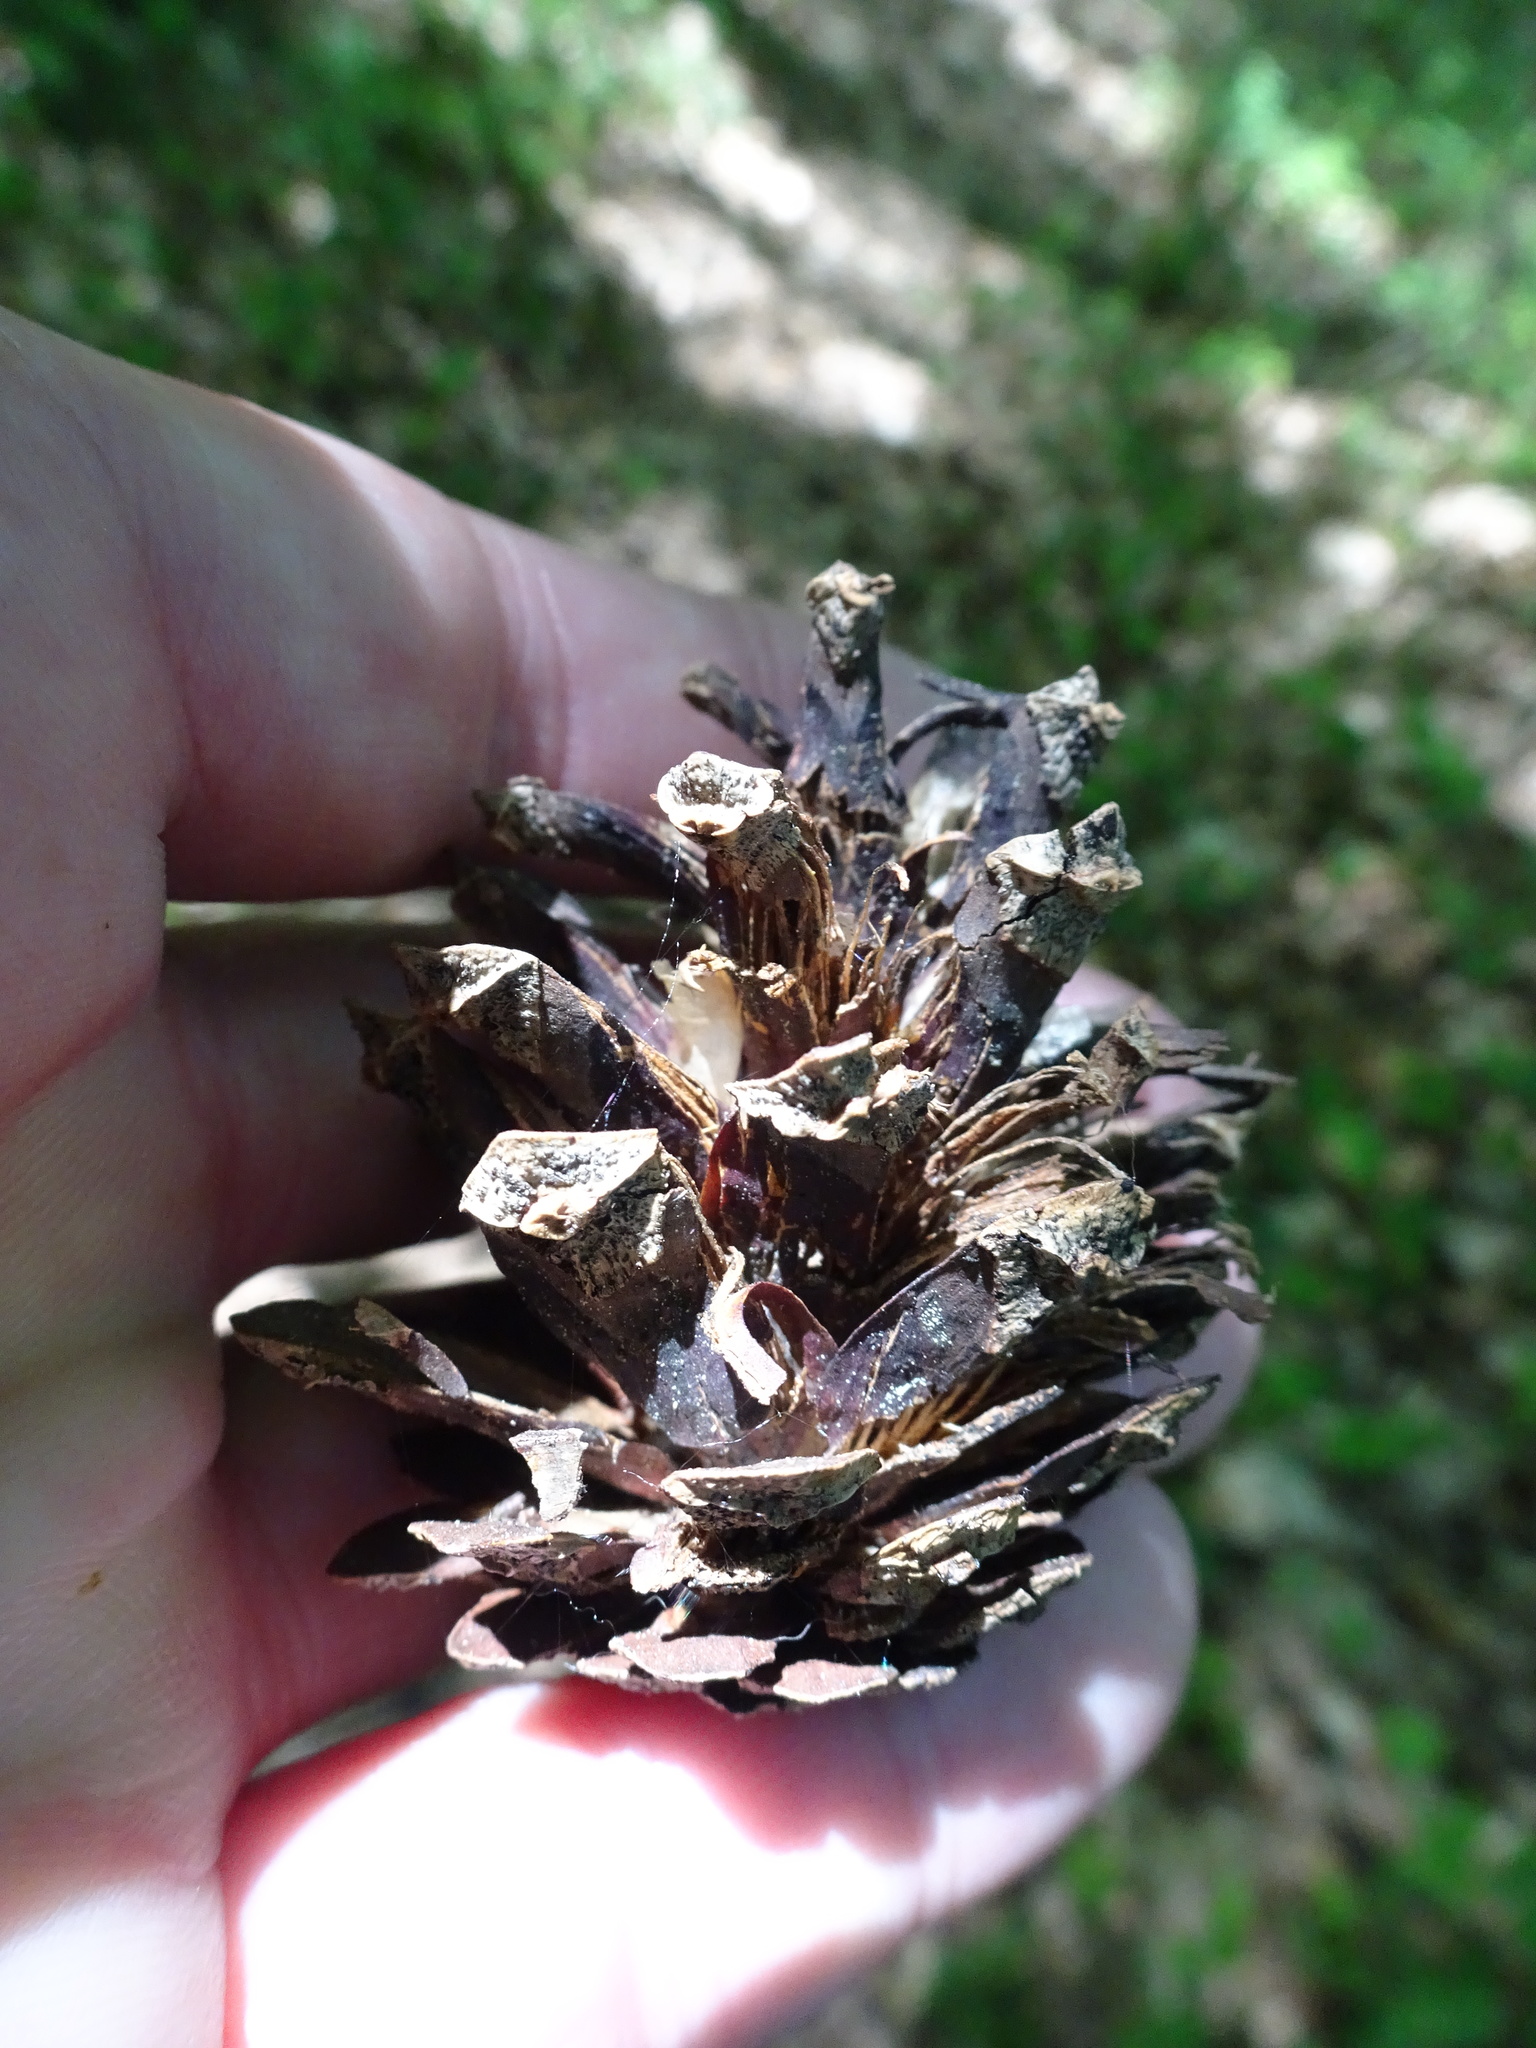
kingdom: Plantae
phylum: Tracheophyta
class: Pinopsida
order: Pinales
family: Pinaceae
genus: Pinus
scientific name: Pinus sylvestris
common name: Scots pine
